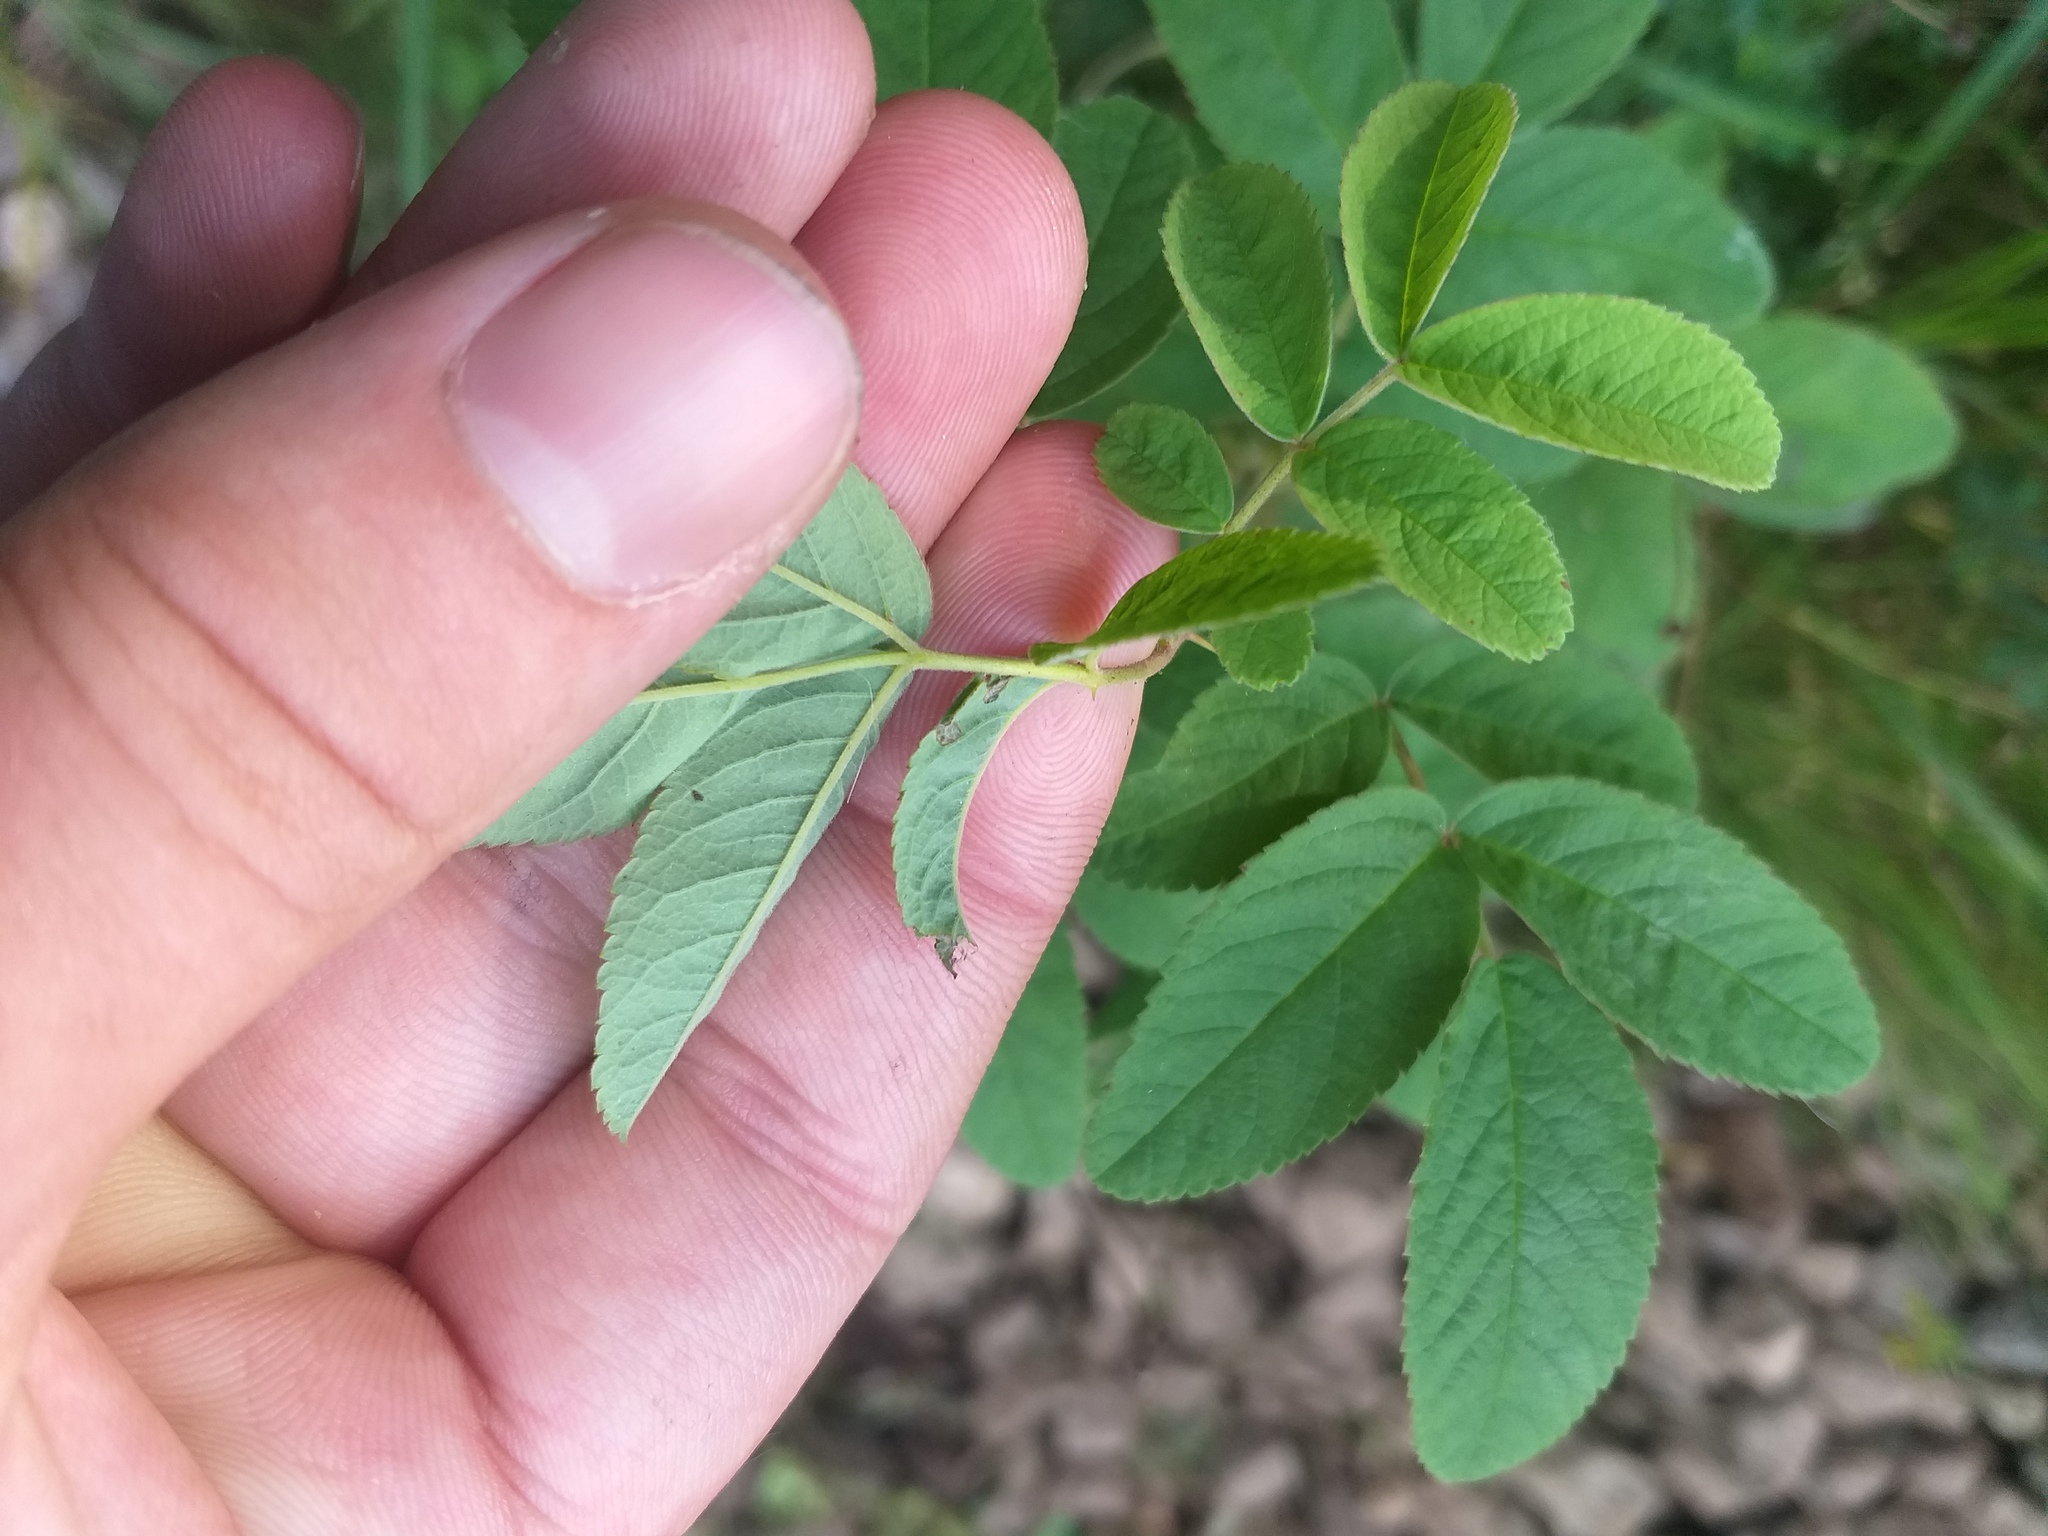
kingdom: Plantae
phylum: Tracheophyta
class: Magnoliopsida
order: Rosales
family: Rosaceae
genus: Rosa
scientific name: Rosa majalis
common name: Cinnamon rose
